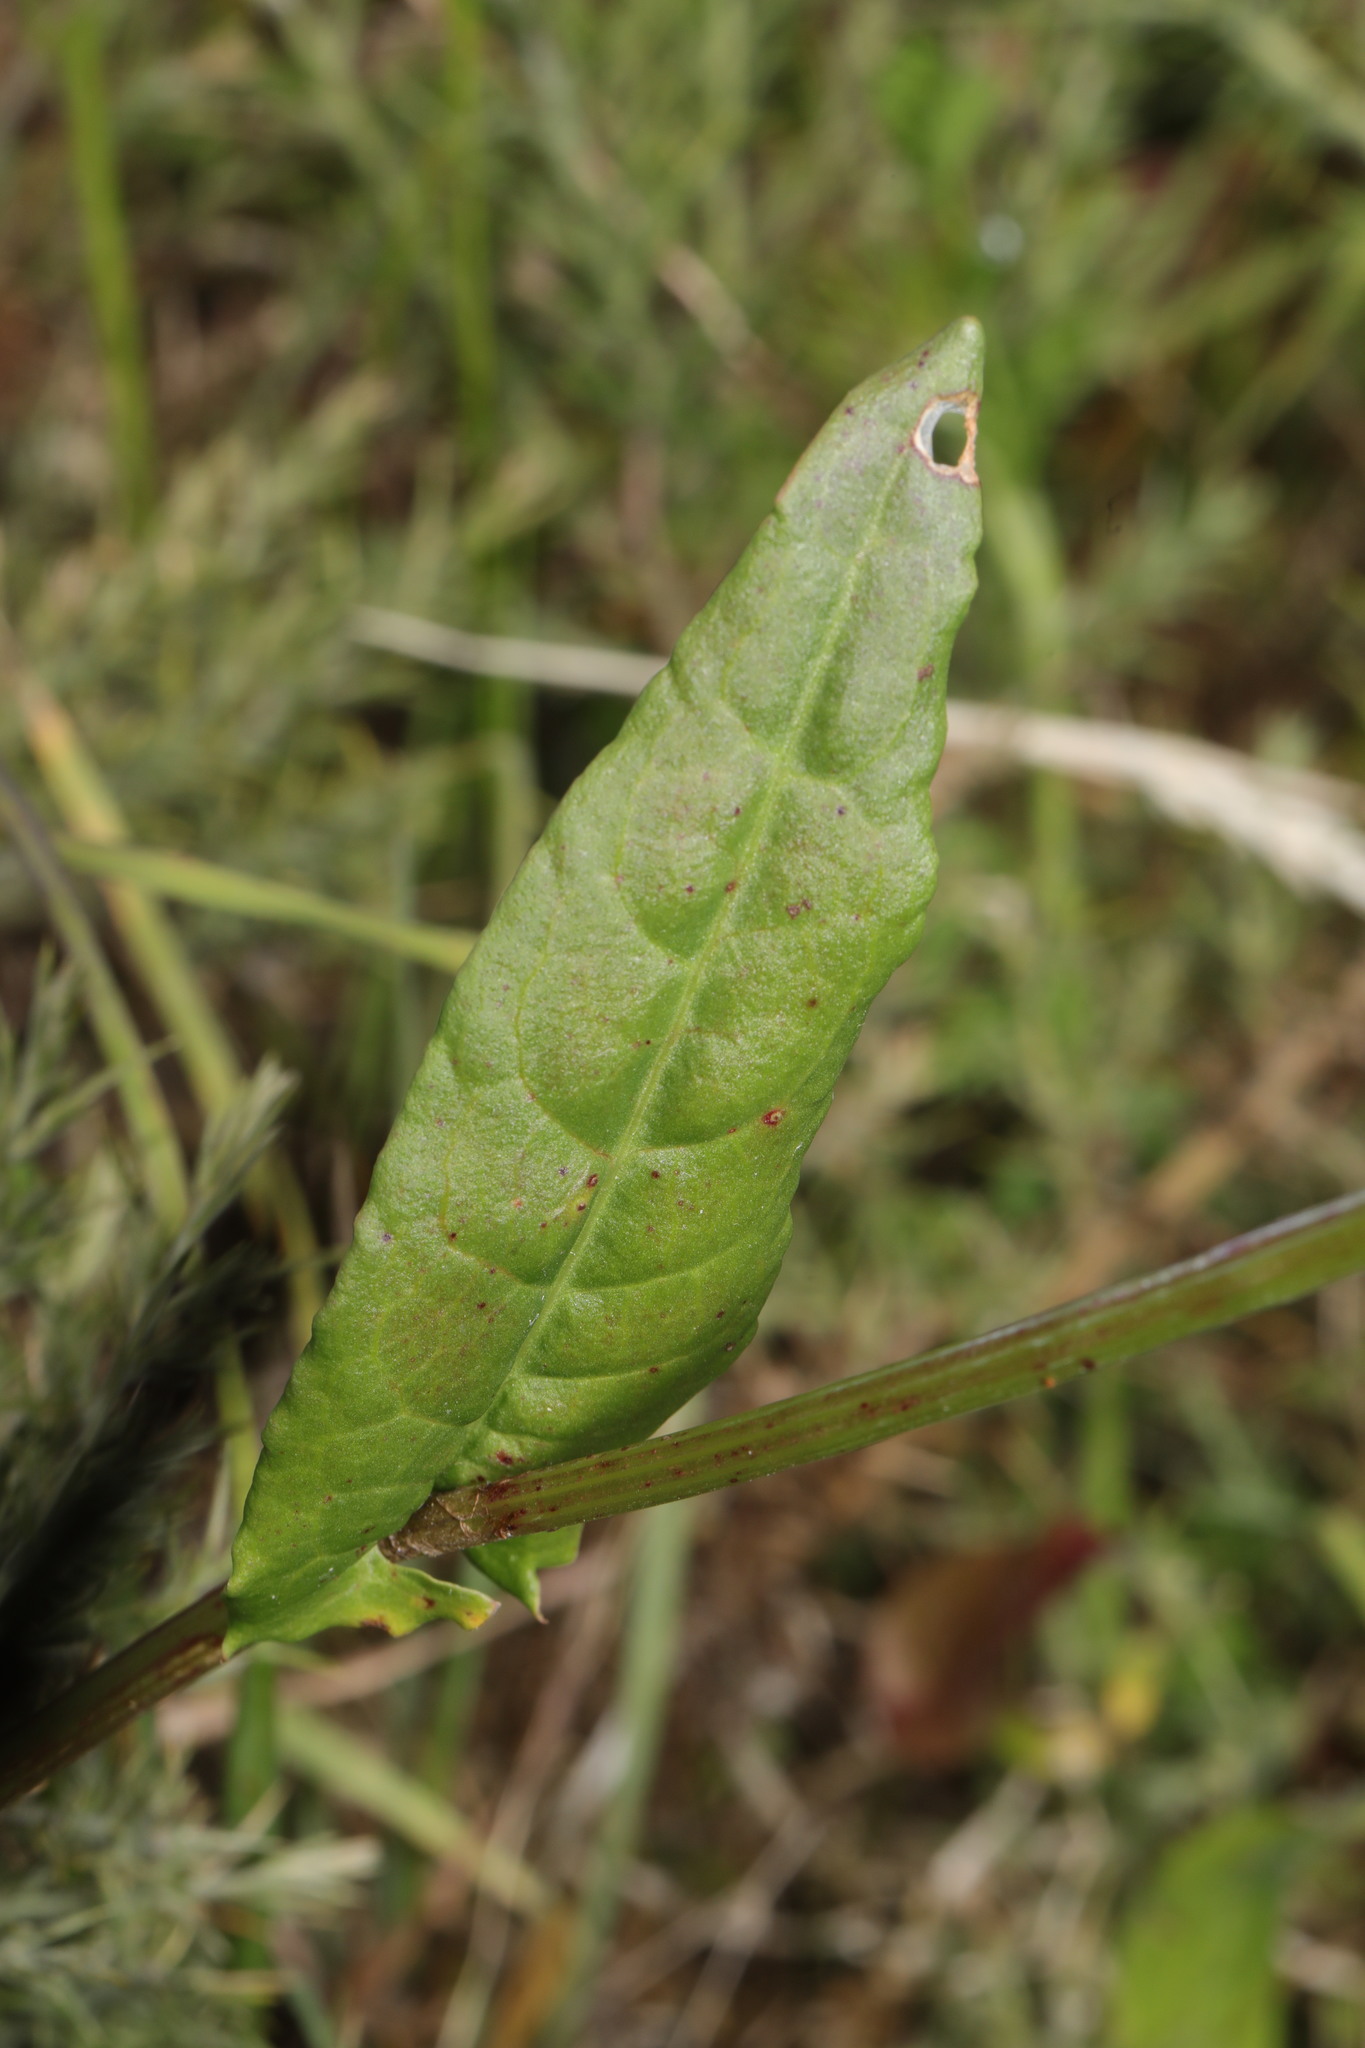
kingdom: Plantae
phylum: Tracheophyta
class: Magnoliopsida
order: Caryophyllales
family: Polygonaceae
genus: Rumex
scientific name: Rumex acetosa
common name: Garden sorrel
